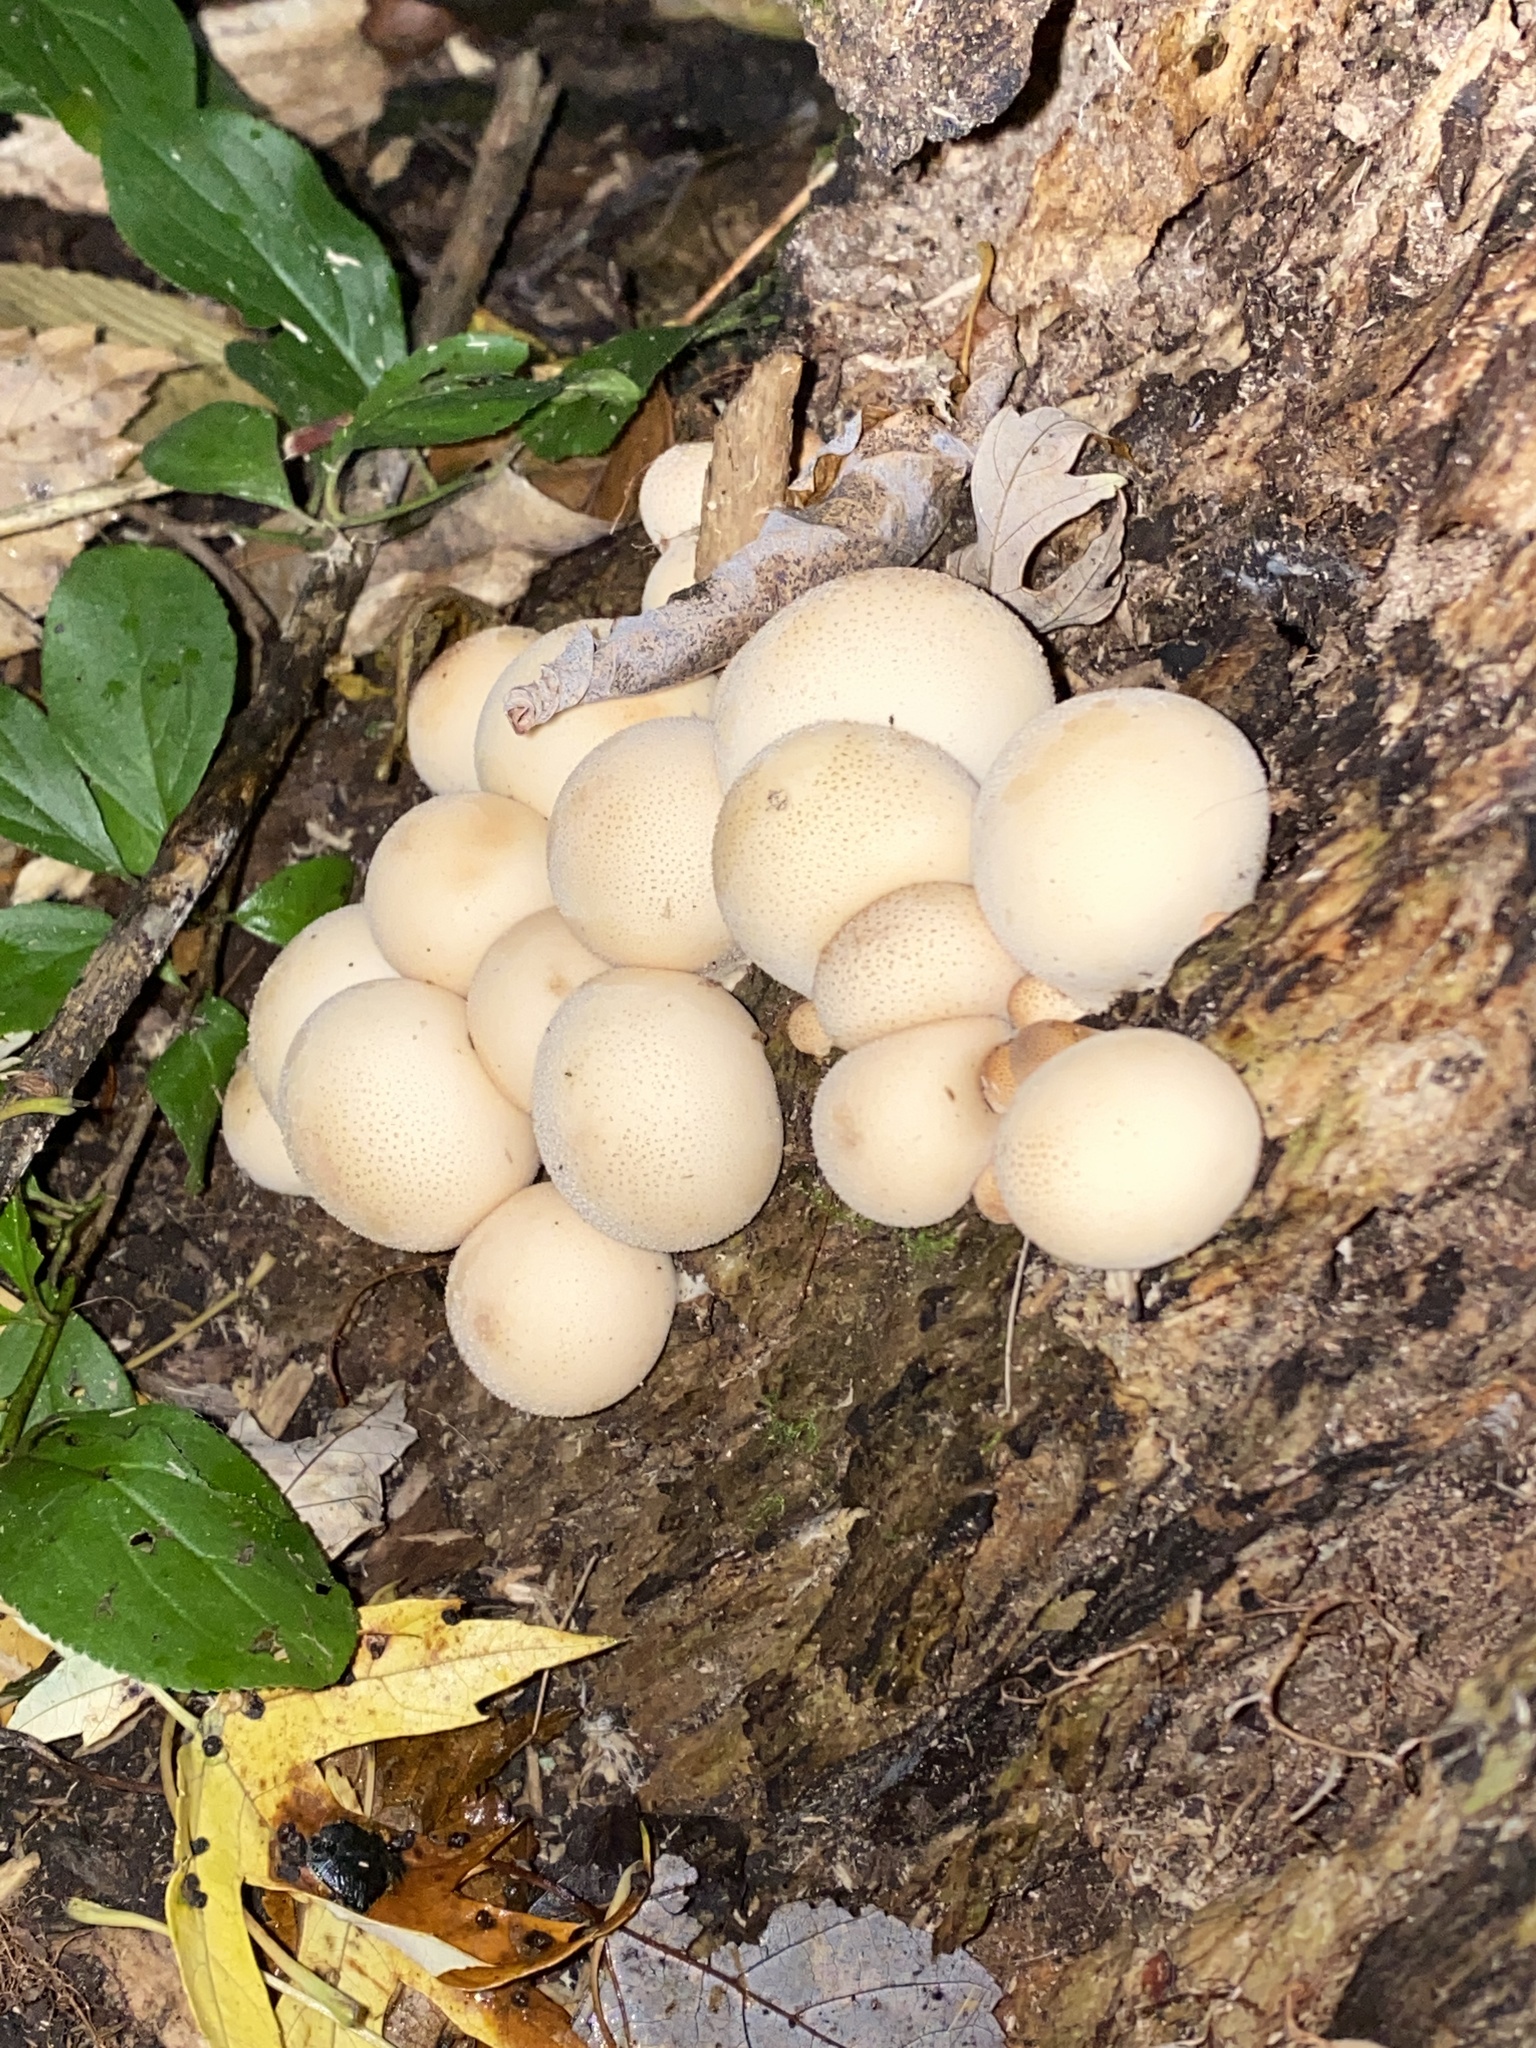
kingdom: Fungi
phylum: Basidiomycota
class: Agaricomycetes
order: Agaricales
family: Lycoperdaceae
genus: Apioperdon
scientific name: Apioperdon pyriforme
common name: Pear-shaped puffball
